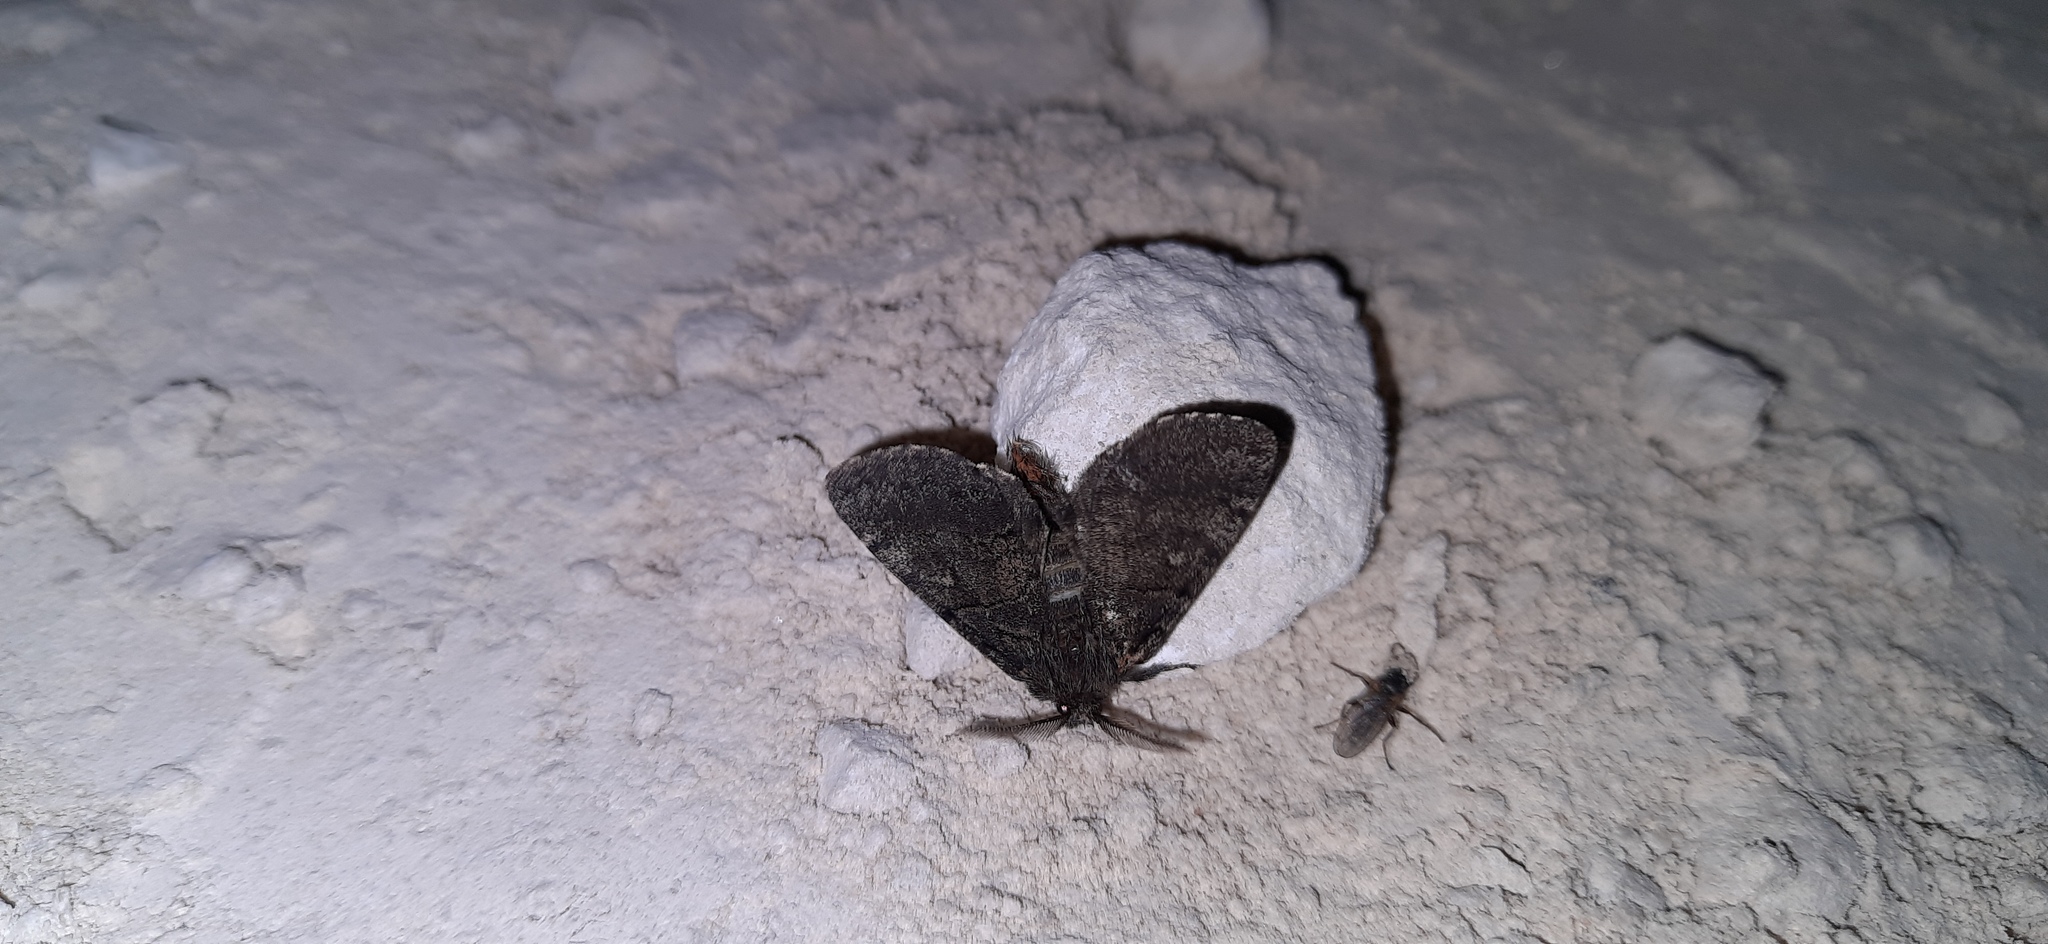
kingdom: Animalia
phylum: Arthropoda
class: Insecta
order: Lepidoptera
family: Notodontidae
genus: Gluphisia
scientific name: Gluphisia crenata
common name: Dusky marbled brown
